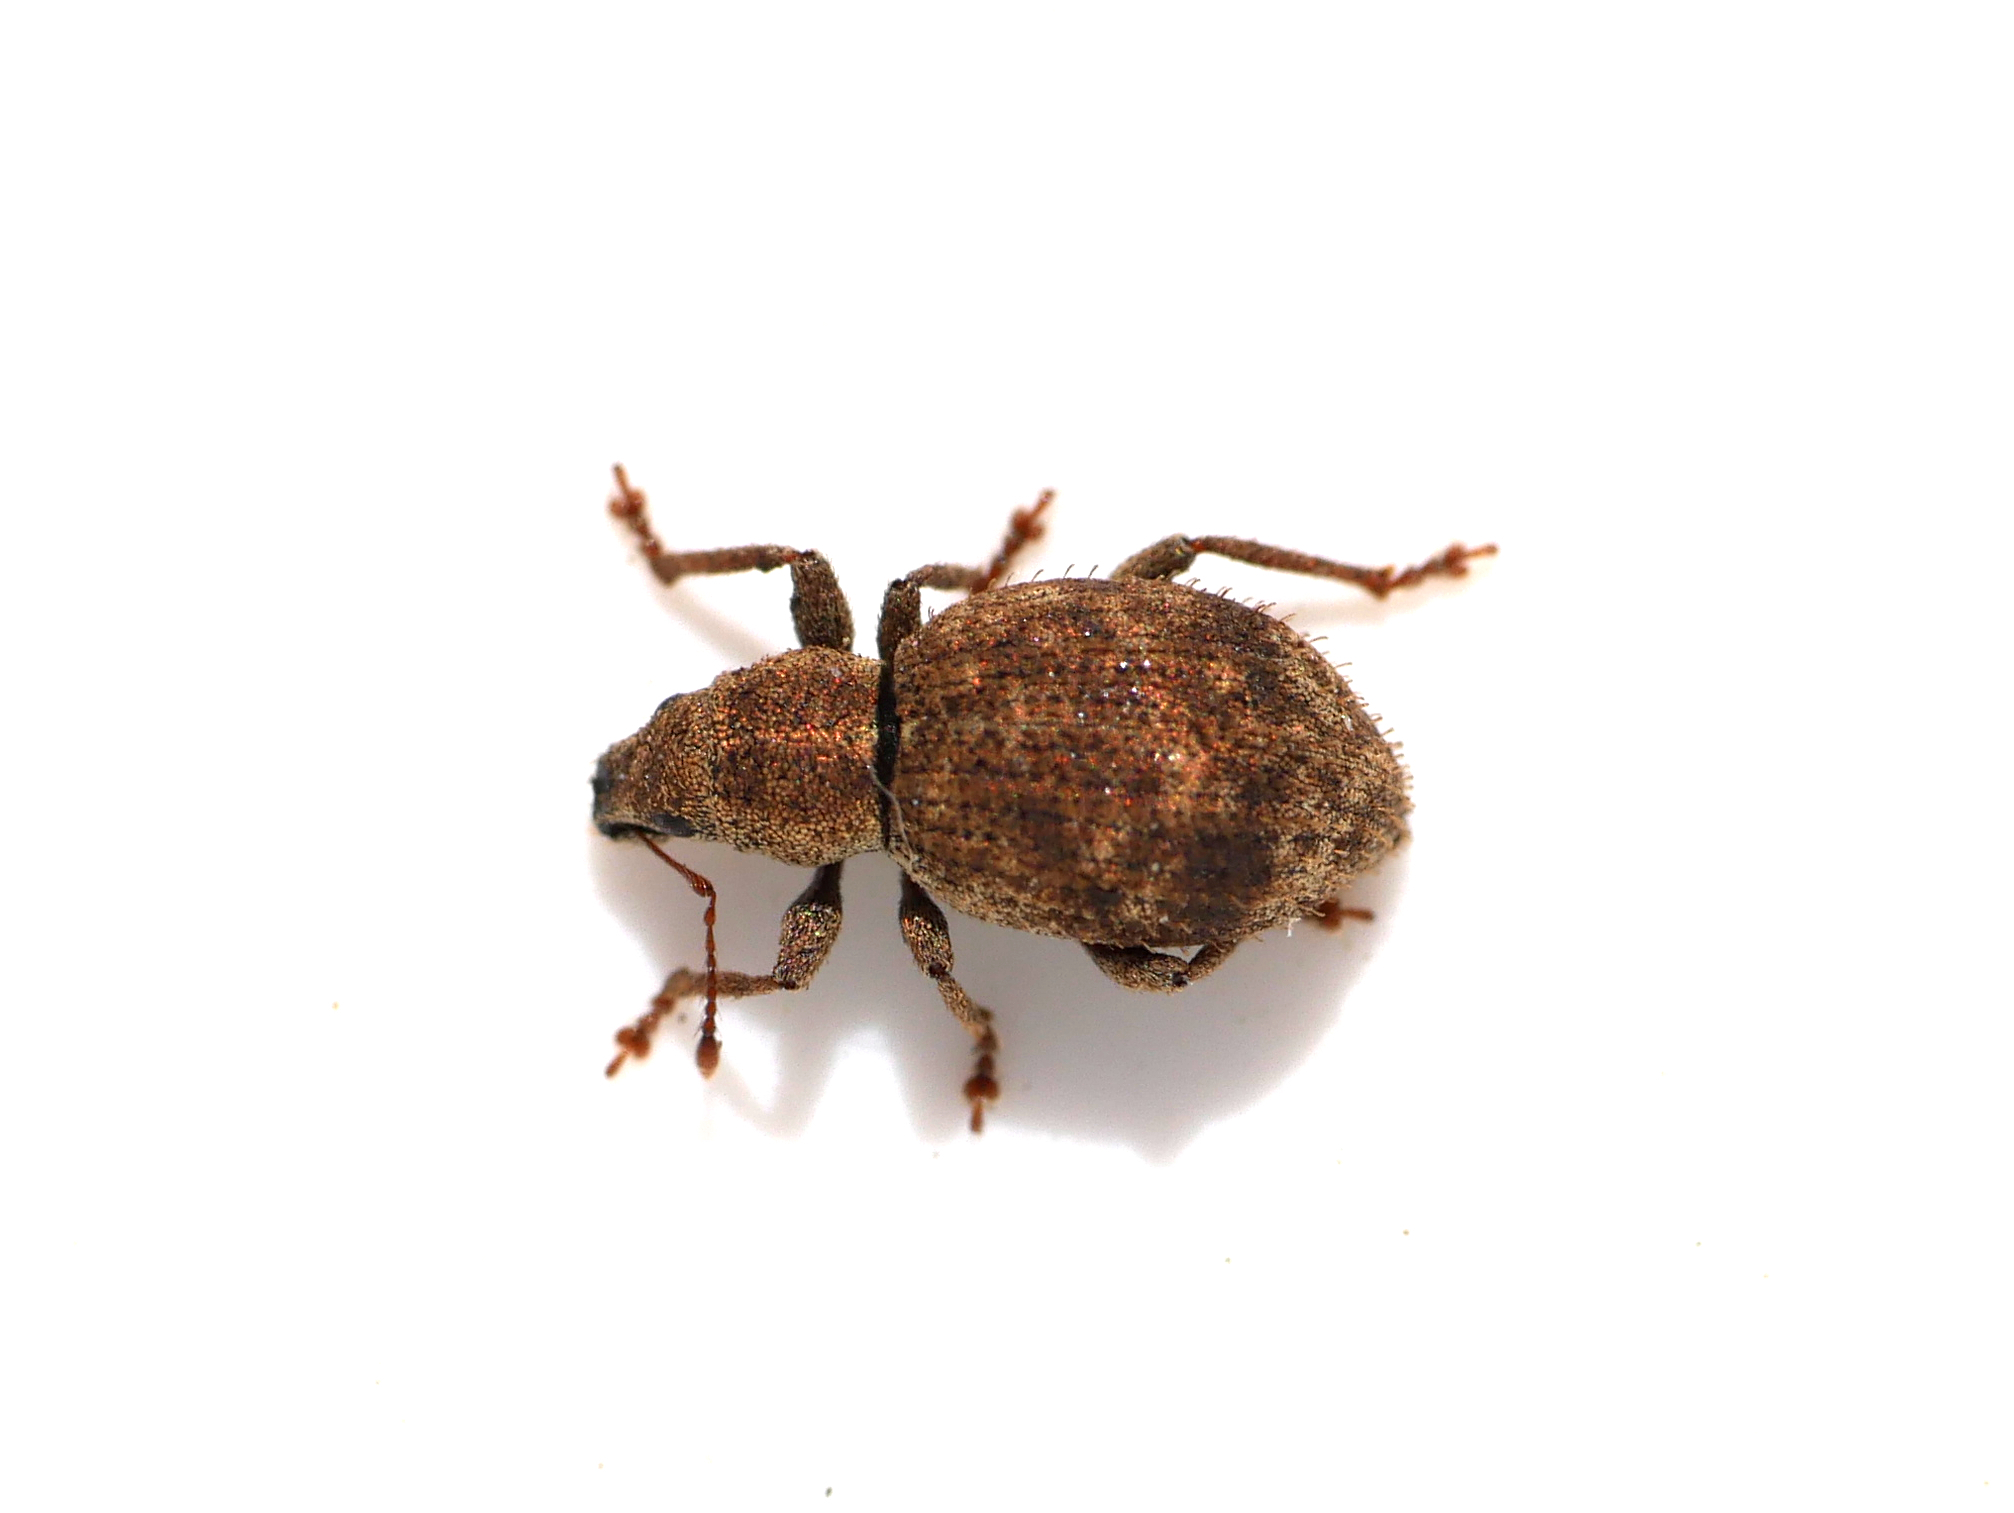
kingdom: Animalia
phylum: Arthropoda
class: Insecta
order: Coleoptera
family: Curculionidae
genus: Sciaphilus
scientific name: Sciaphilus asperatus
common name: Weevil
